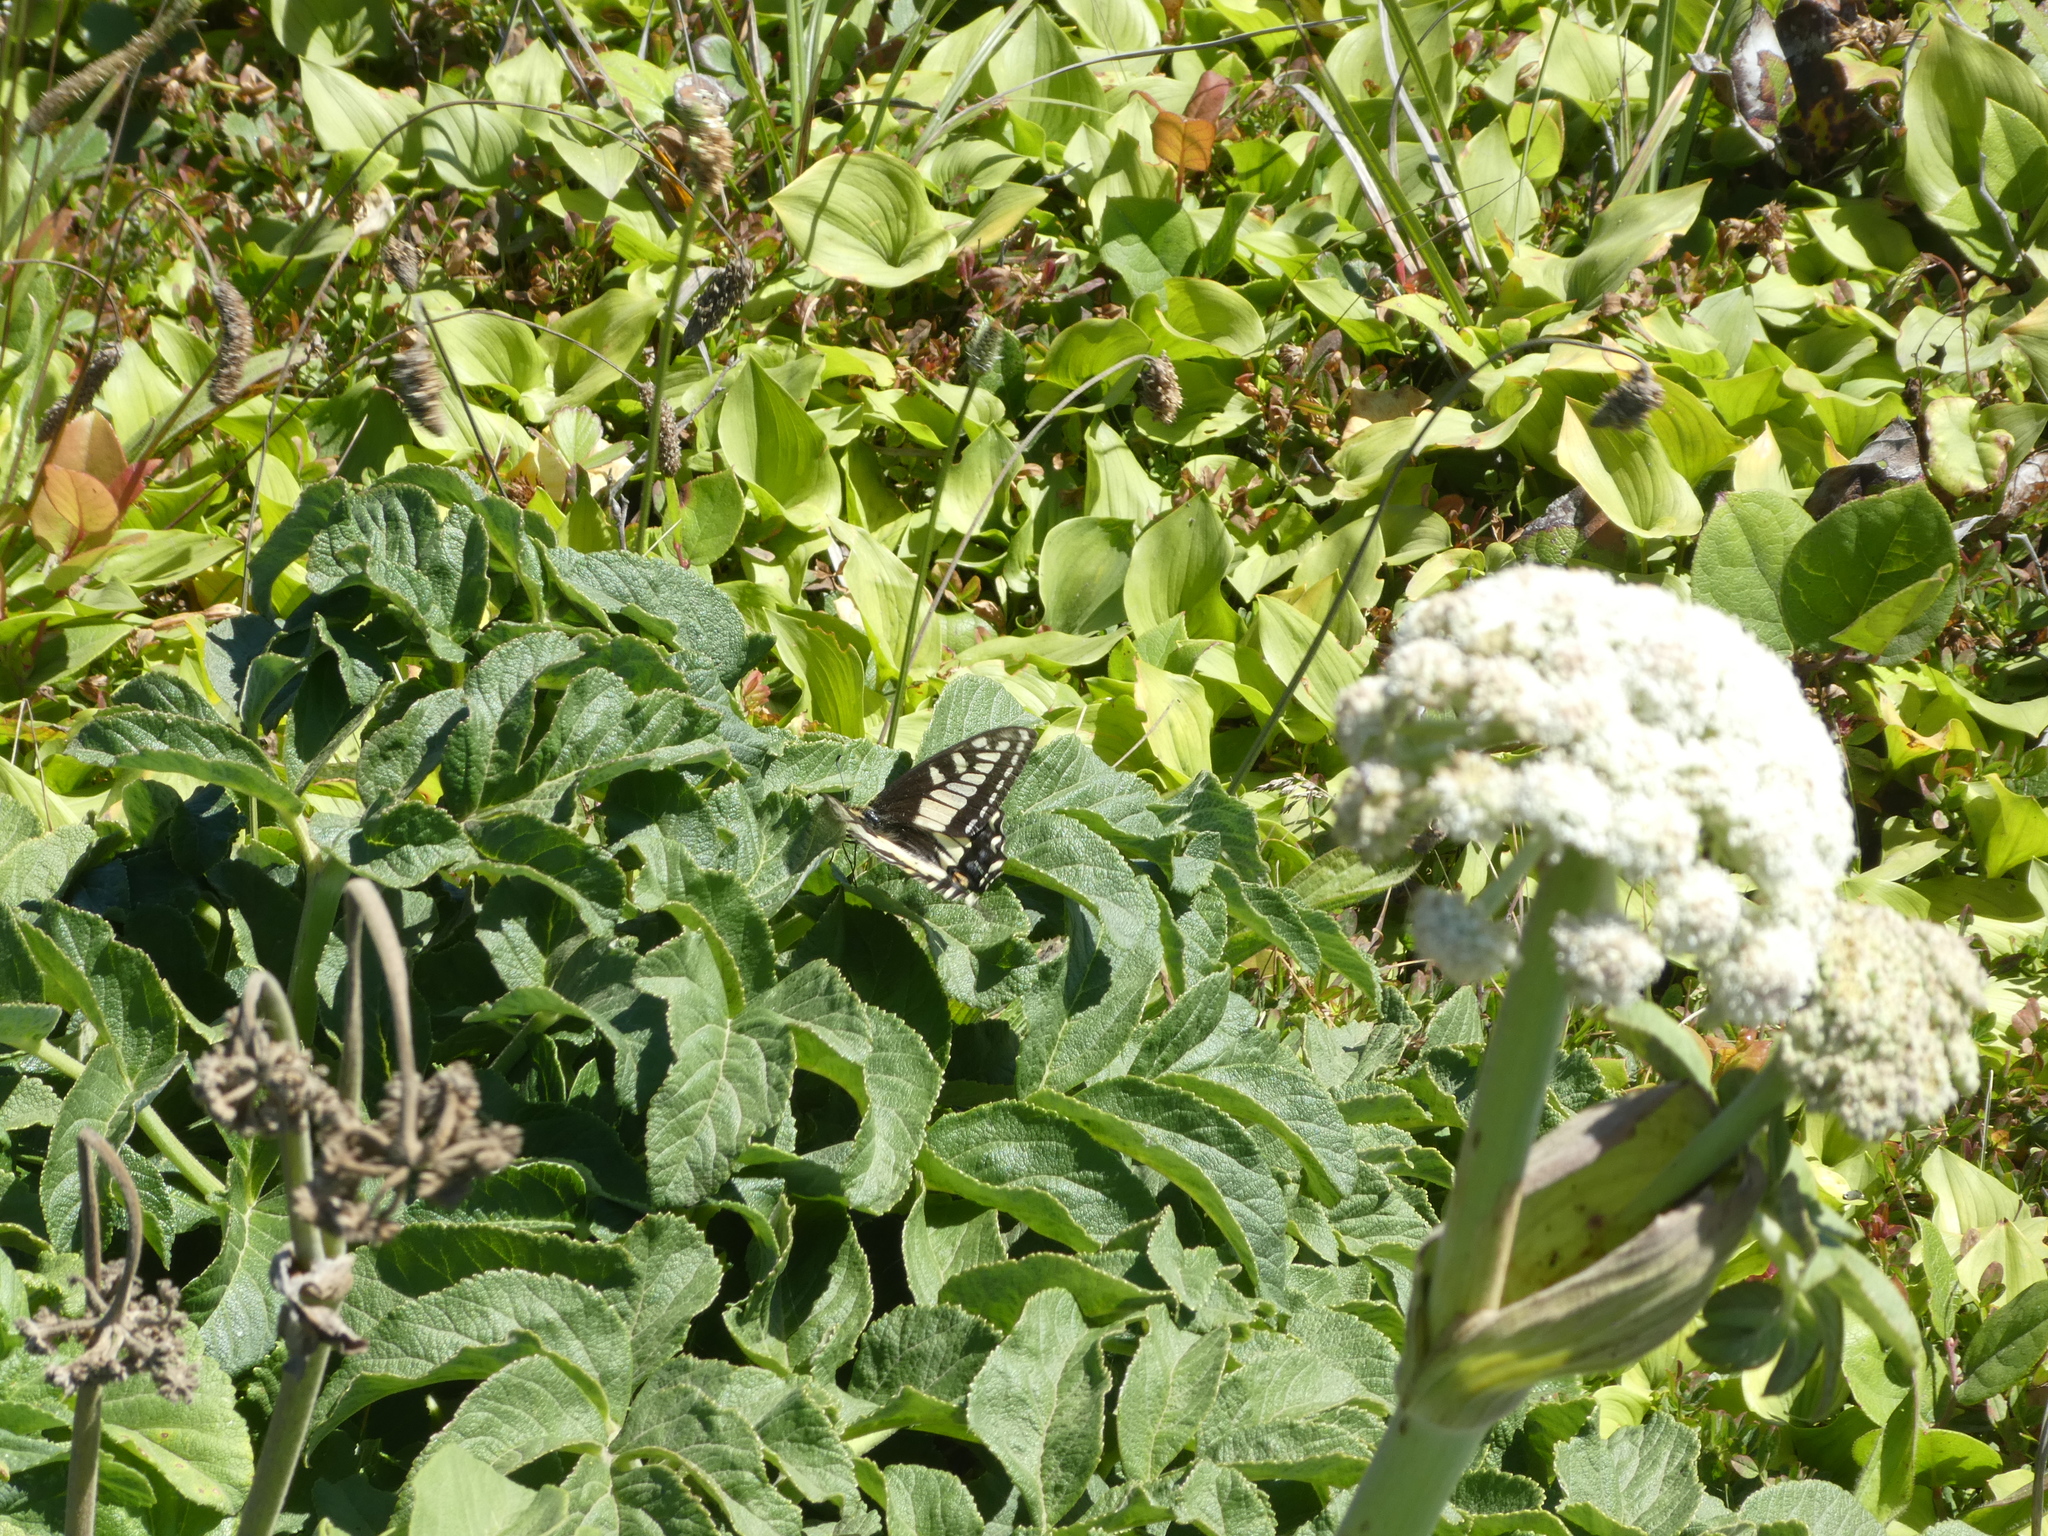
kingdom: Animalia
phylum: Arthropoda
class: Insecta
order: Lepidoptera
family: Papilionidae
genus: Papilio
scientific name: Papilio zelicaon
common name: Anise swallowtail
